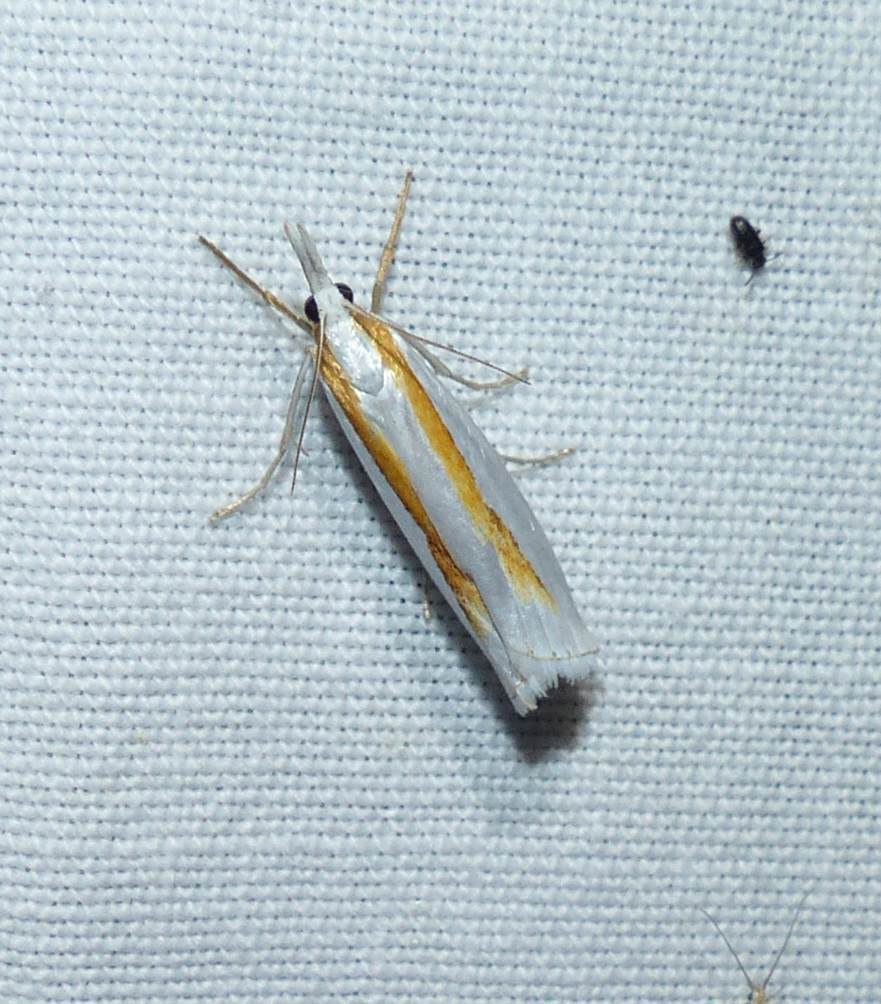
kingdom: Animalia
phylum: Arthropoda
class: Insecta
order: Lepidoptera
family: Crambidae
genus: Crambus
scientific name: Crambus girardellus
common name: Girard's grass-veneer
